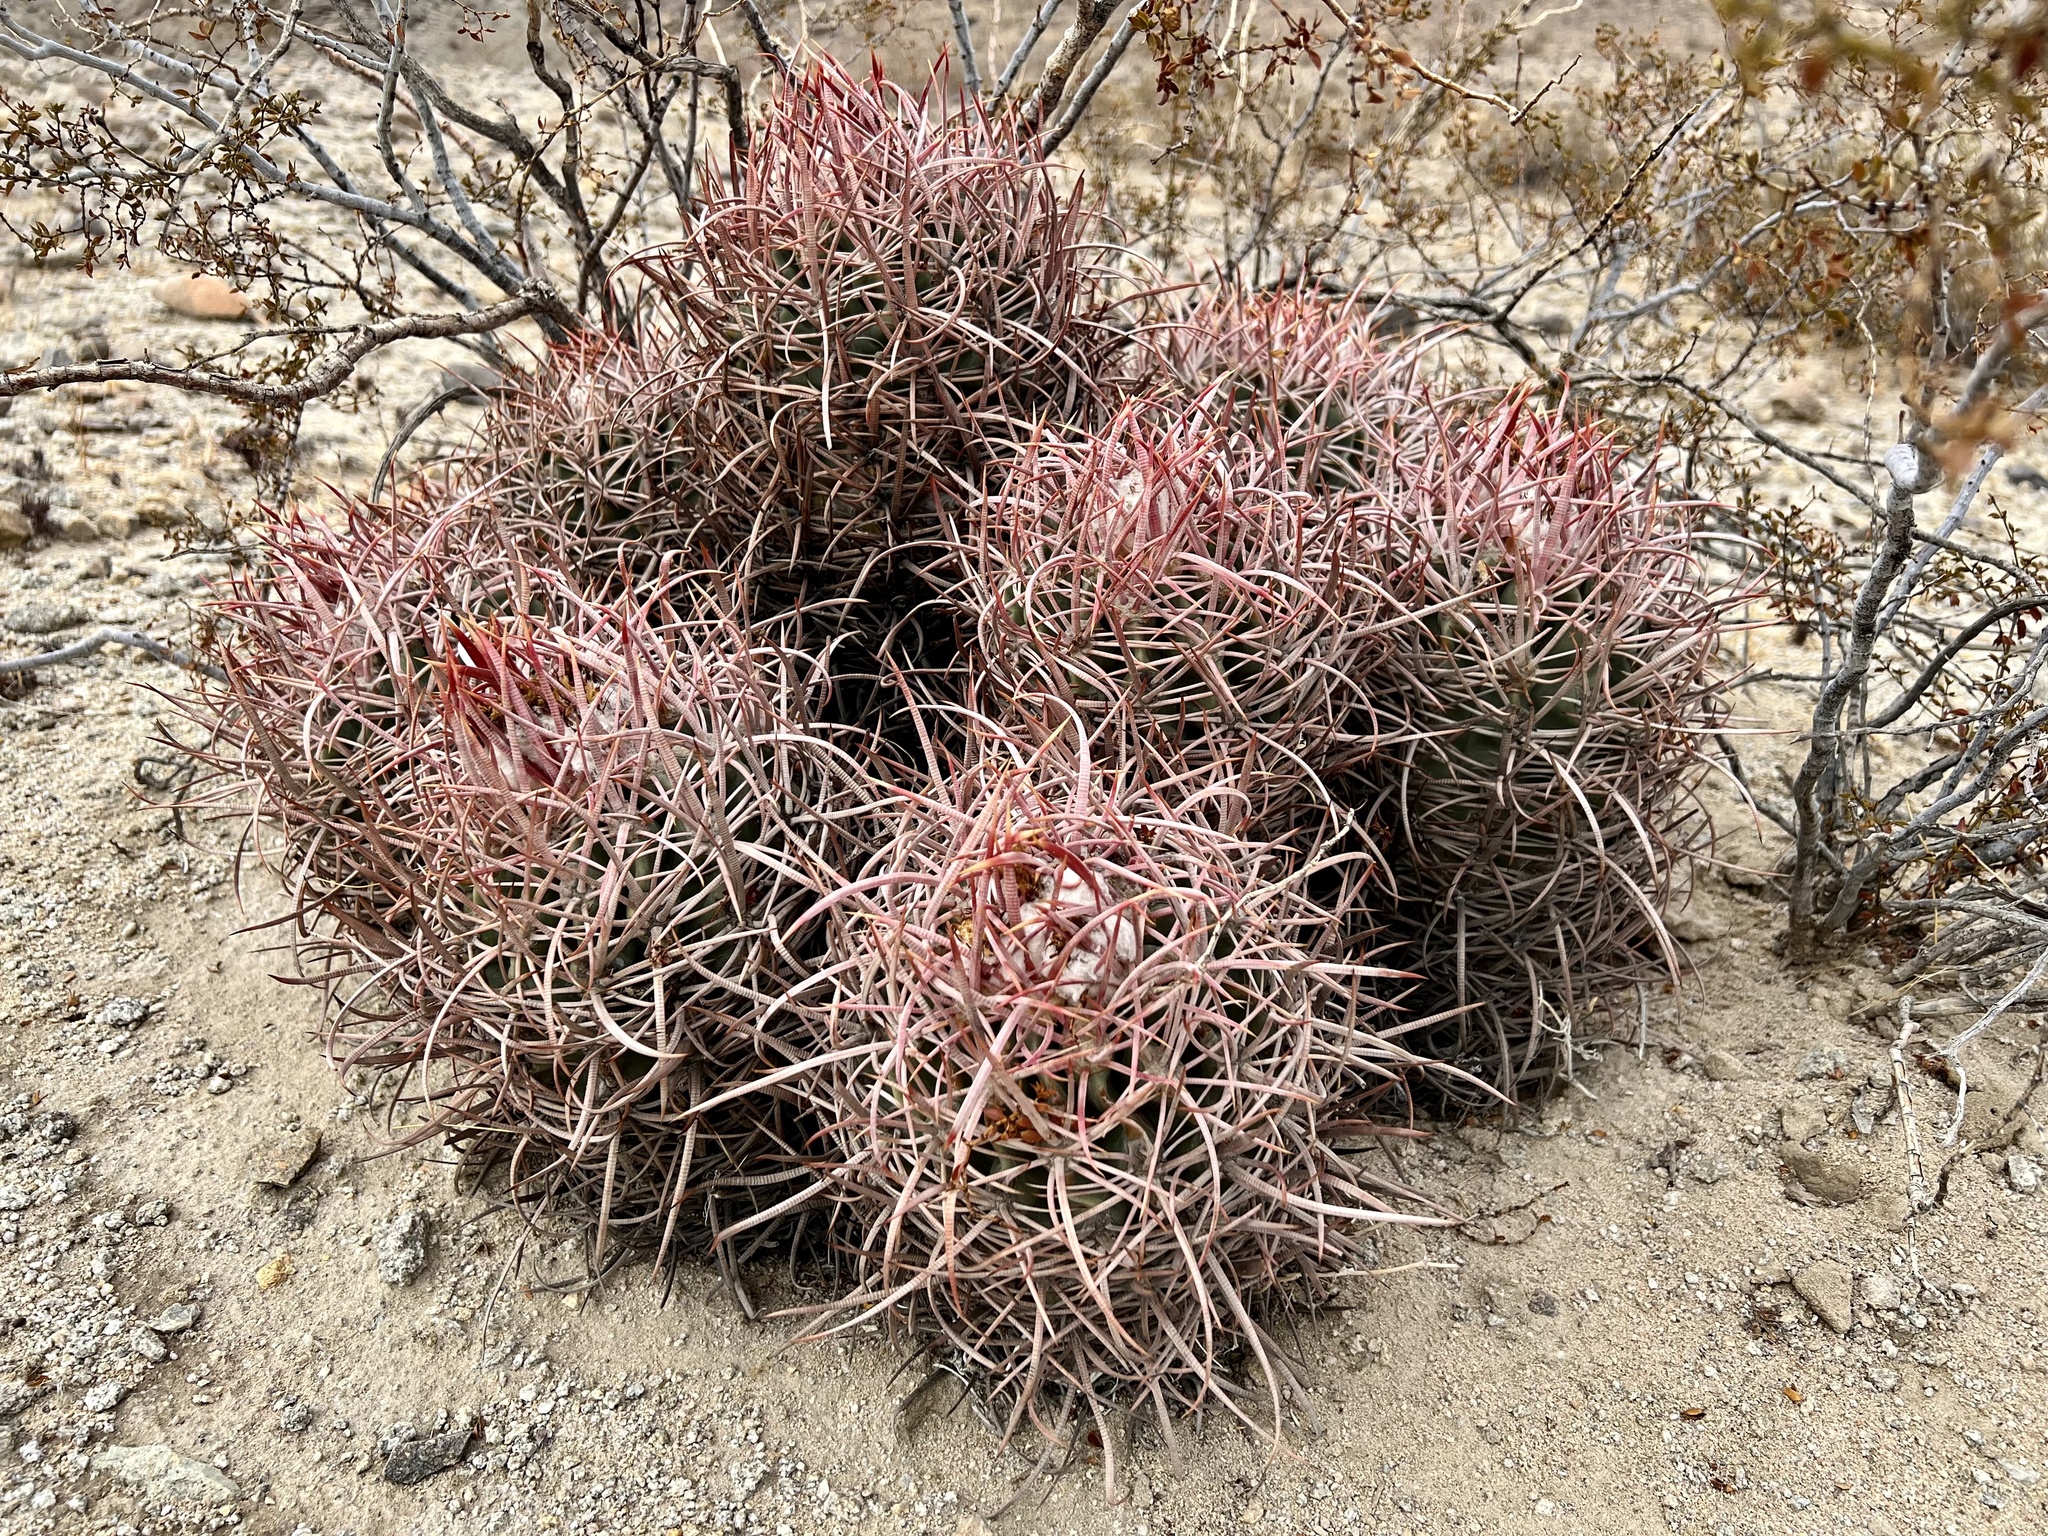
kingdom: Plantae
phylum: Tracheophyta
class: Magnoliopsida
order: Caryophyllales
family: Cactaceae
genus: Echinocactus
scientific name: Echinocactus polycephalus
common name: Cottontop cactus
